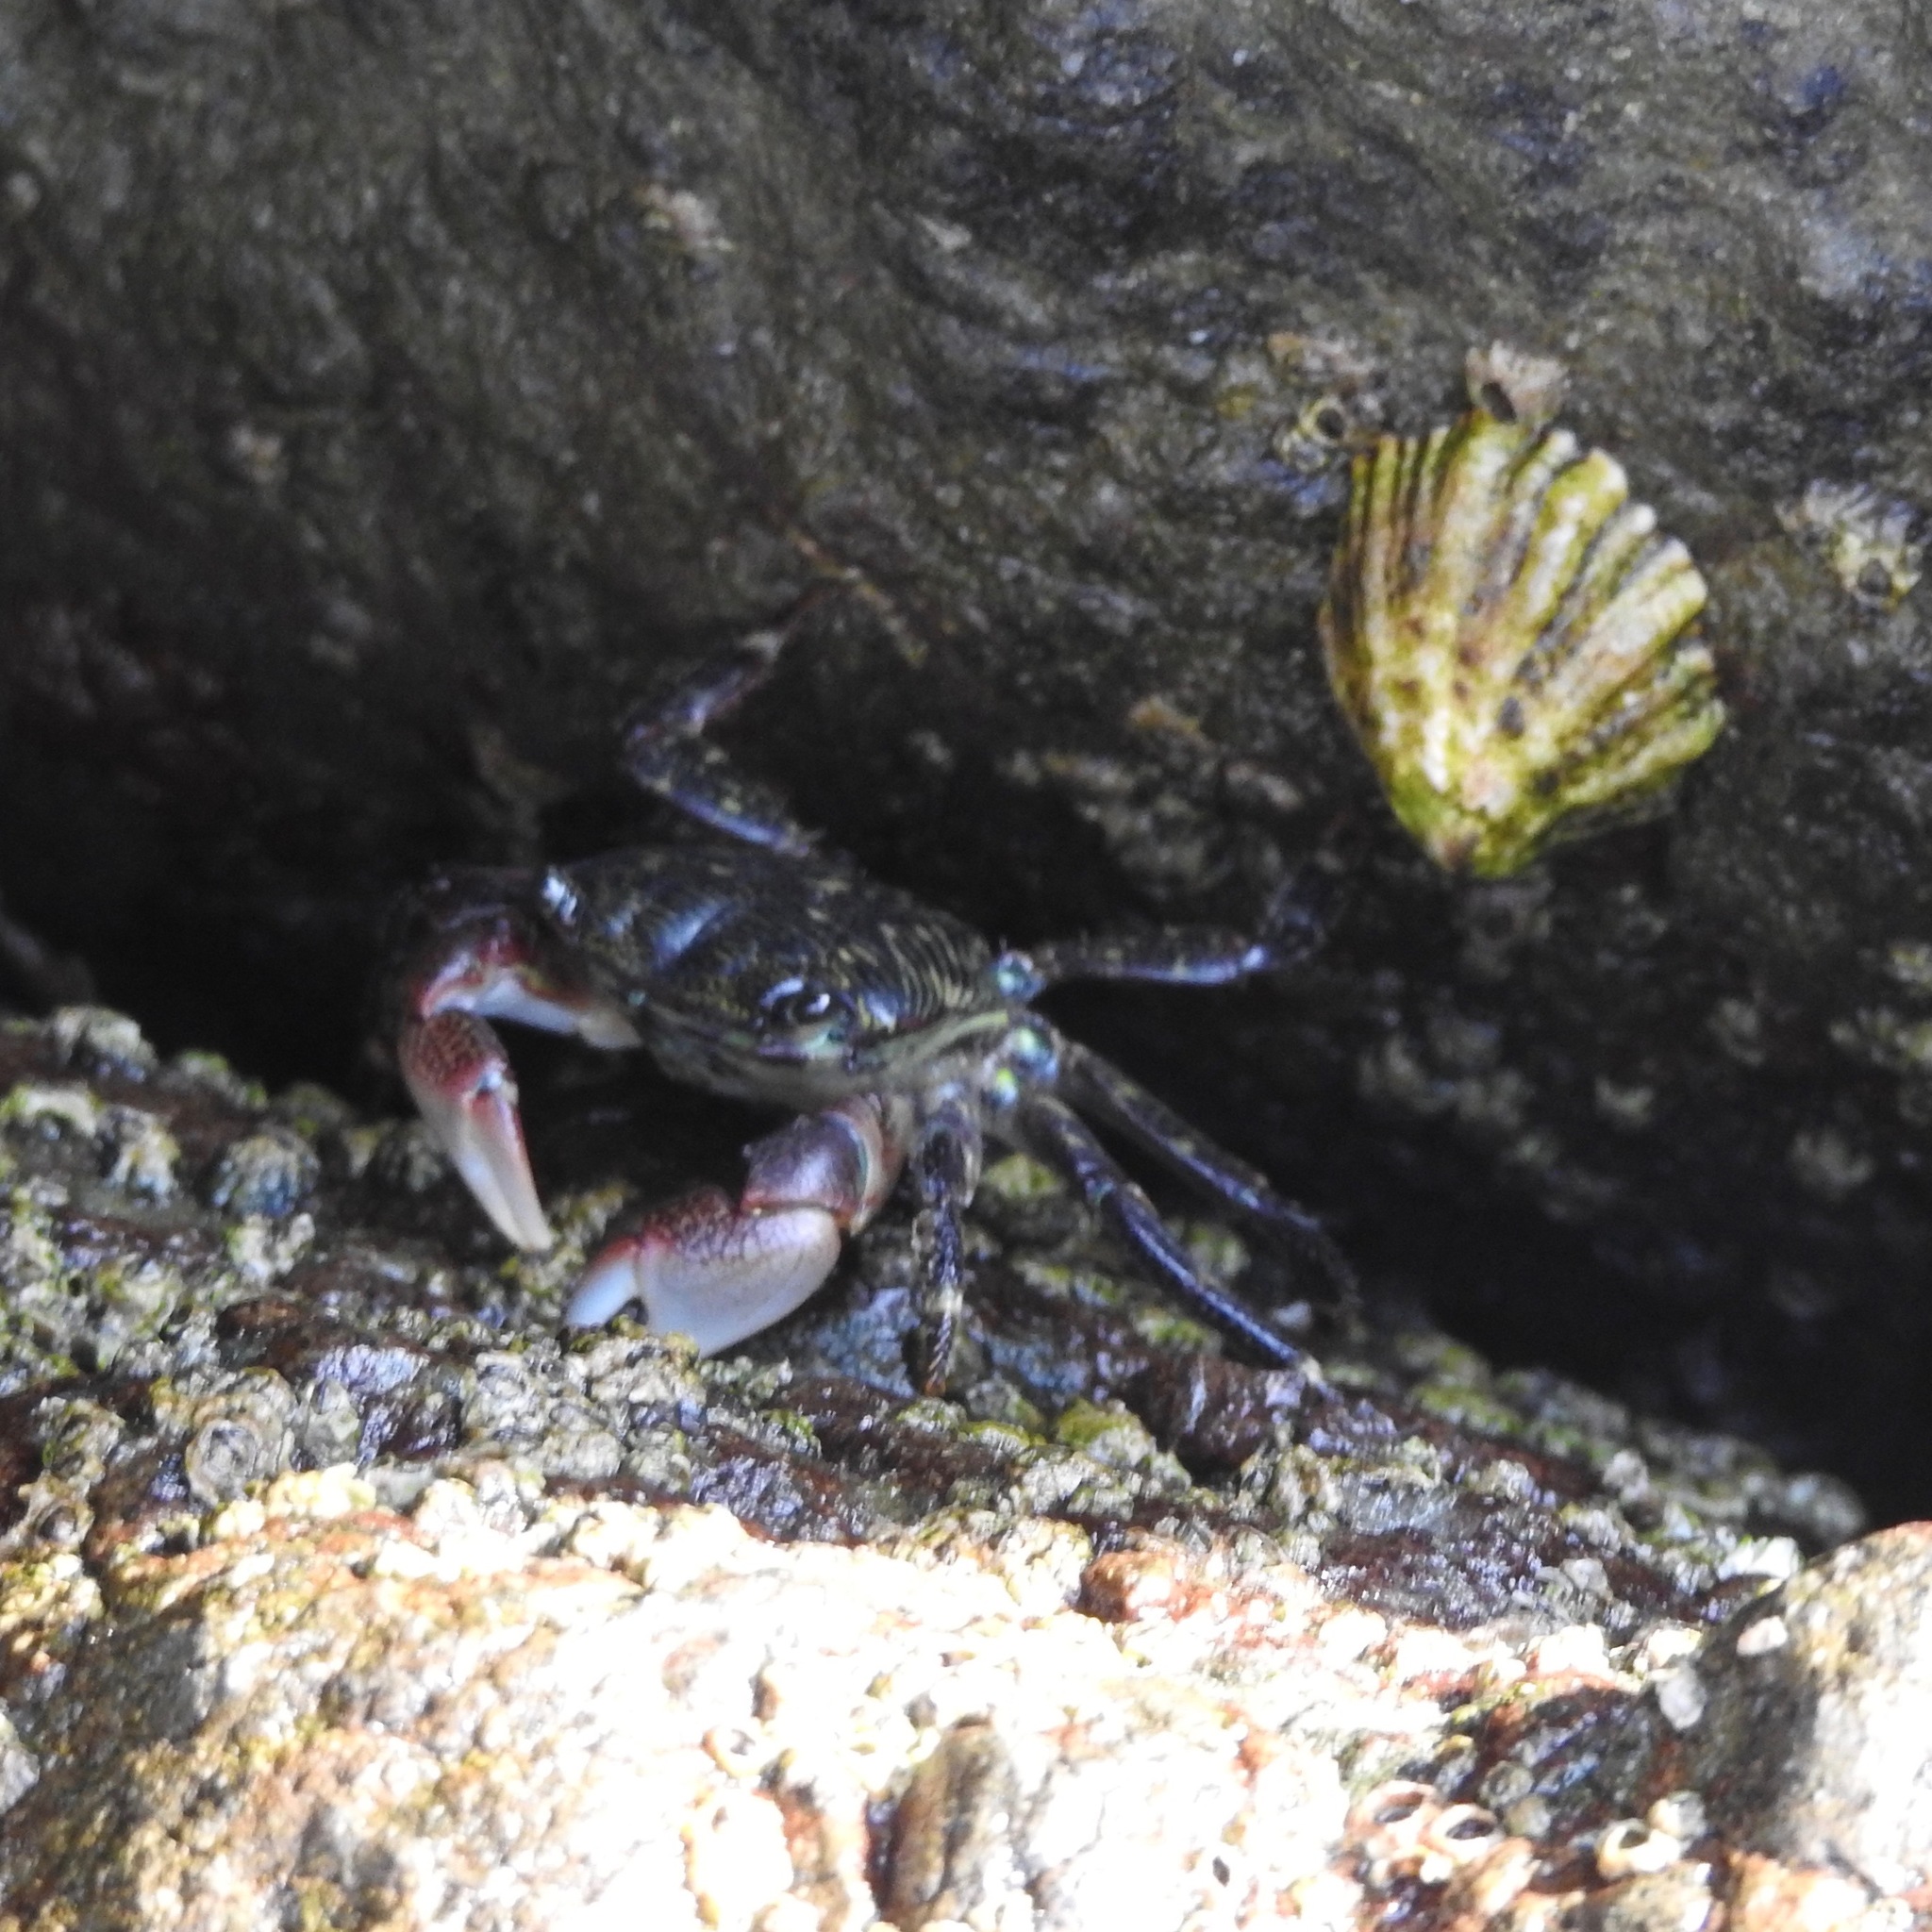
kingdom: Animalia
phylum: Arthropoda
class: Malacostraca
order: Decapoda
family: Grapsidae
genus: Pachygrapsus
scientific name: Pachygrapsus crassipes
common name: Striped shore crab
